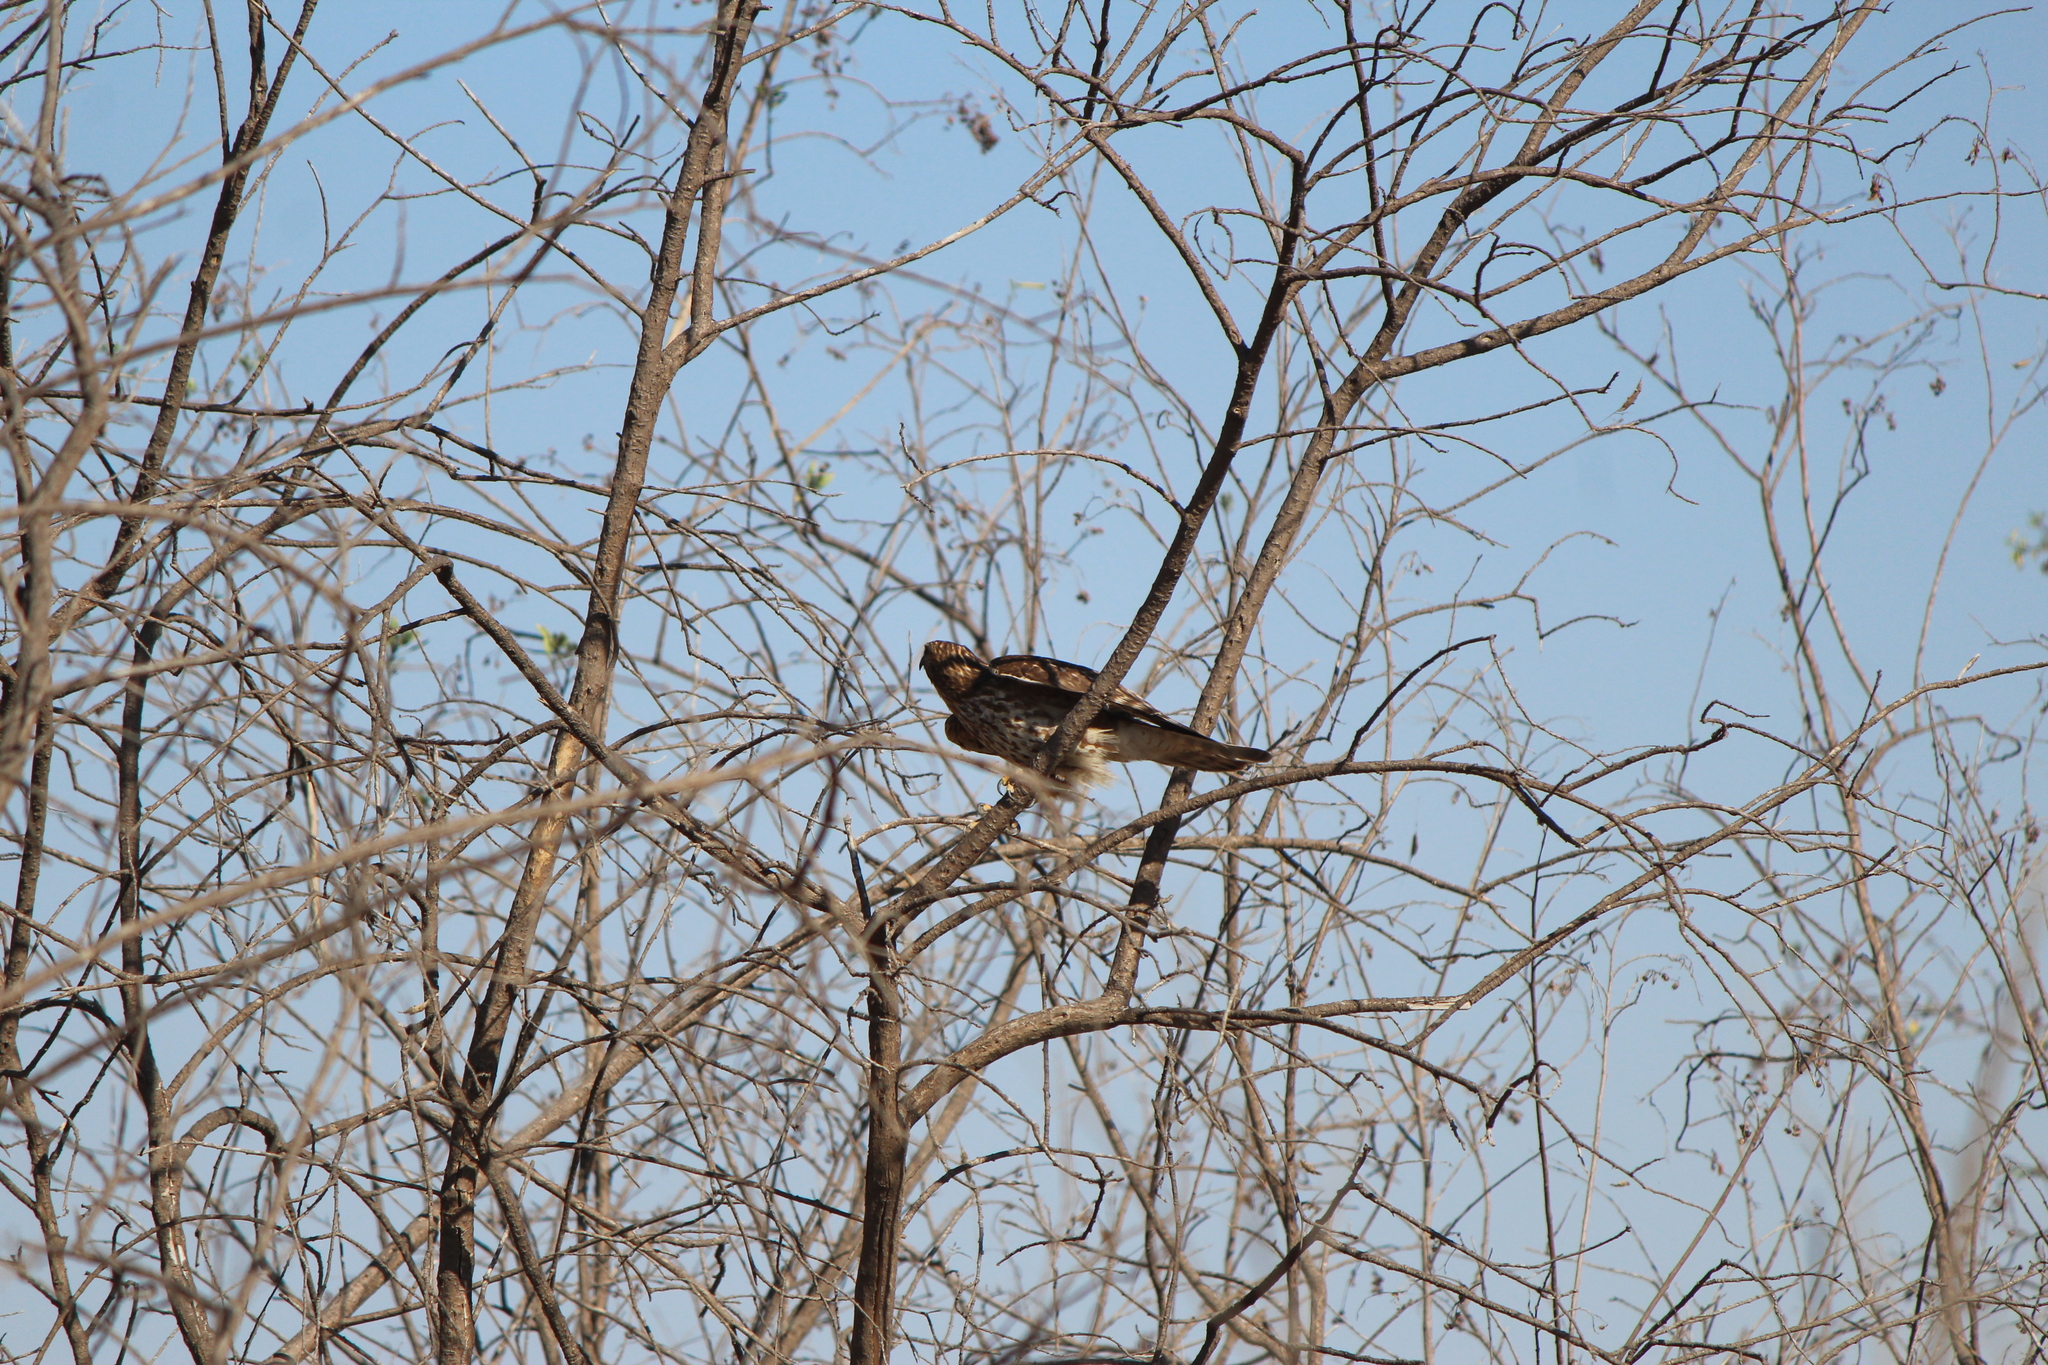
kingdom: Animalia
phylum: Chordata
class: Aves
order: Falconiformes
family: Falconidae
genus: Falco
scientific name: Falco columbarius
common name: Merlin
